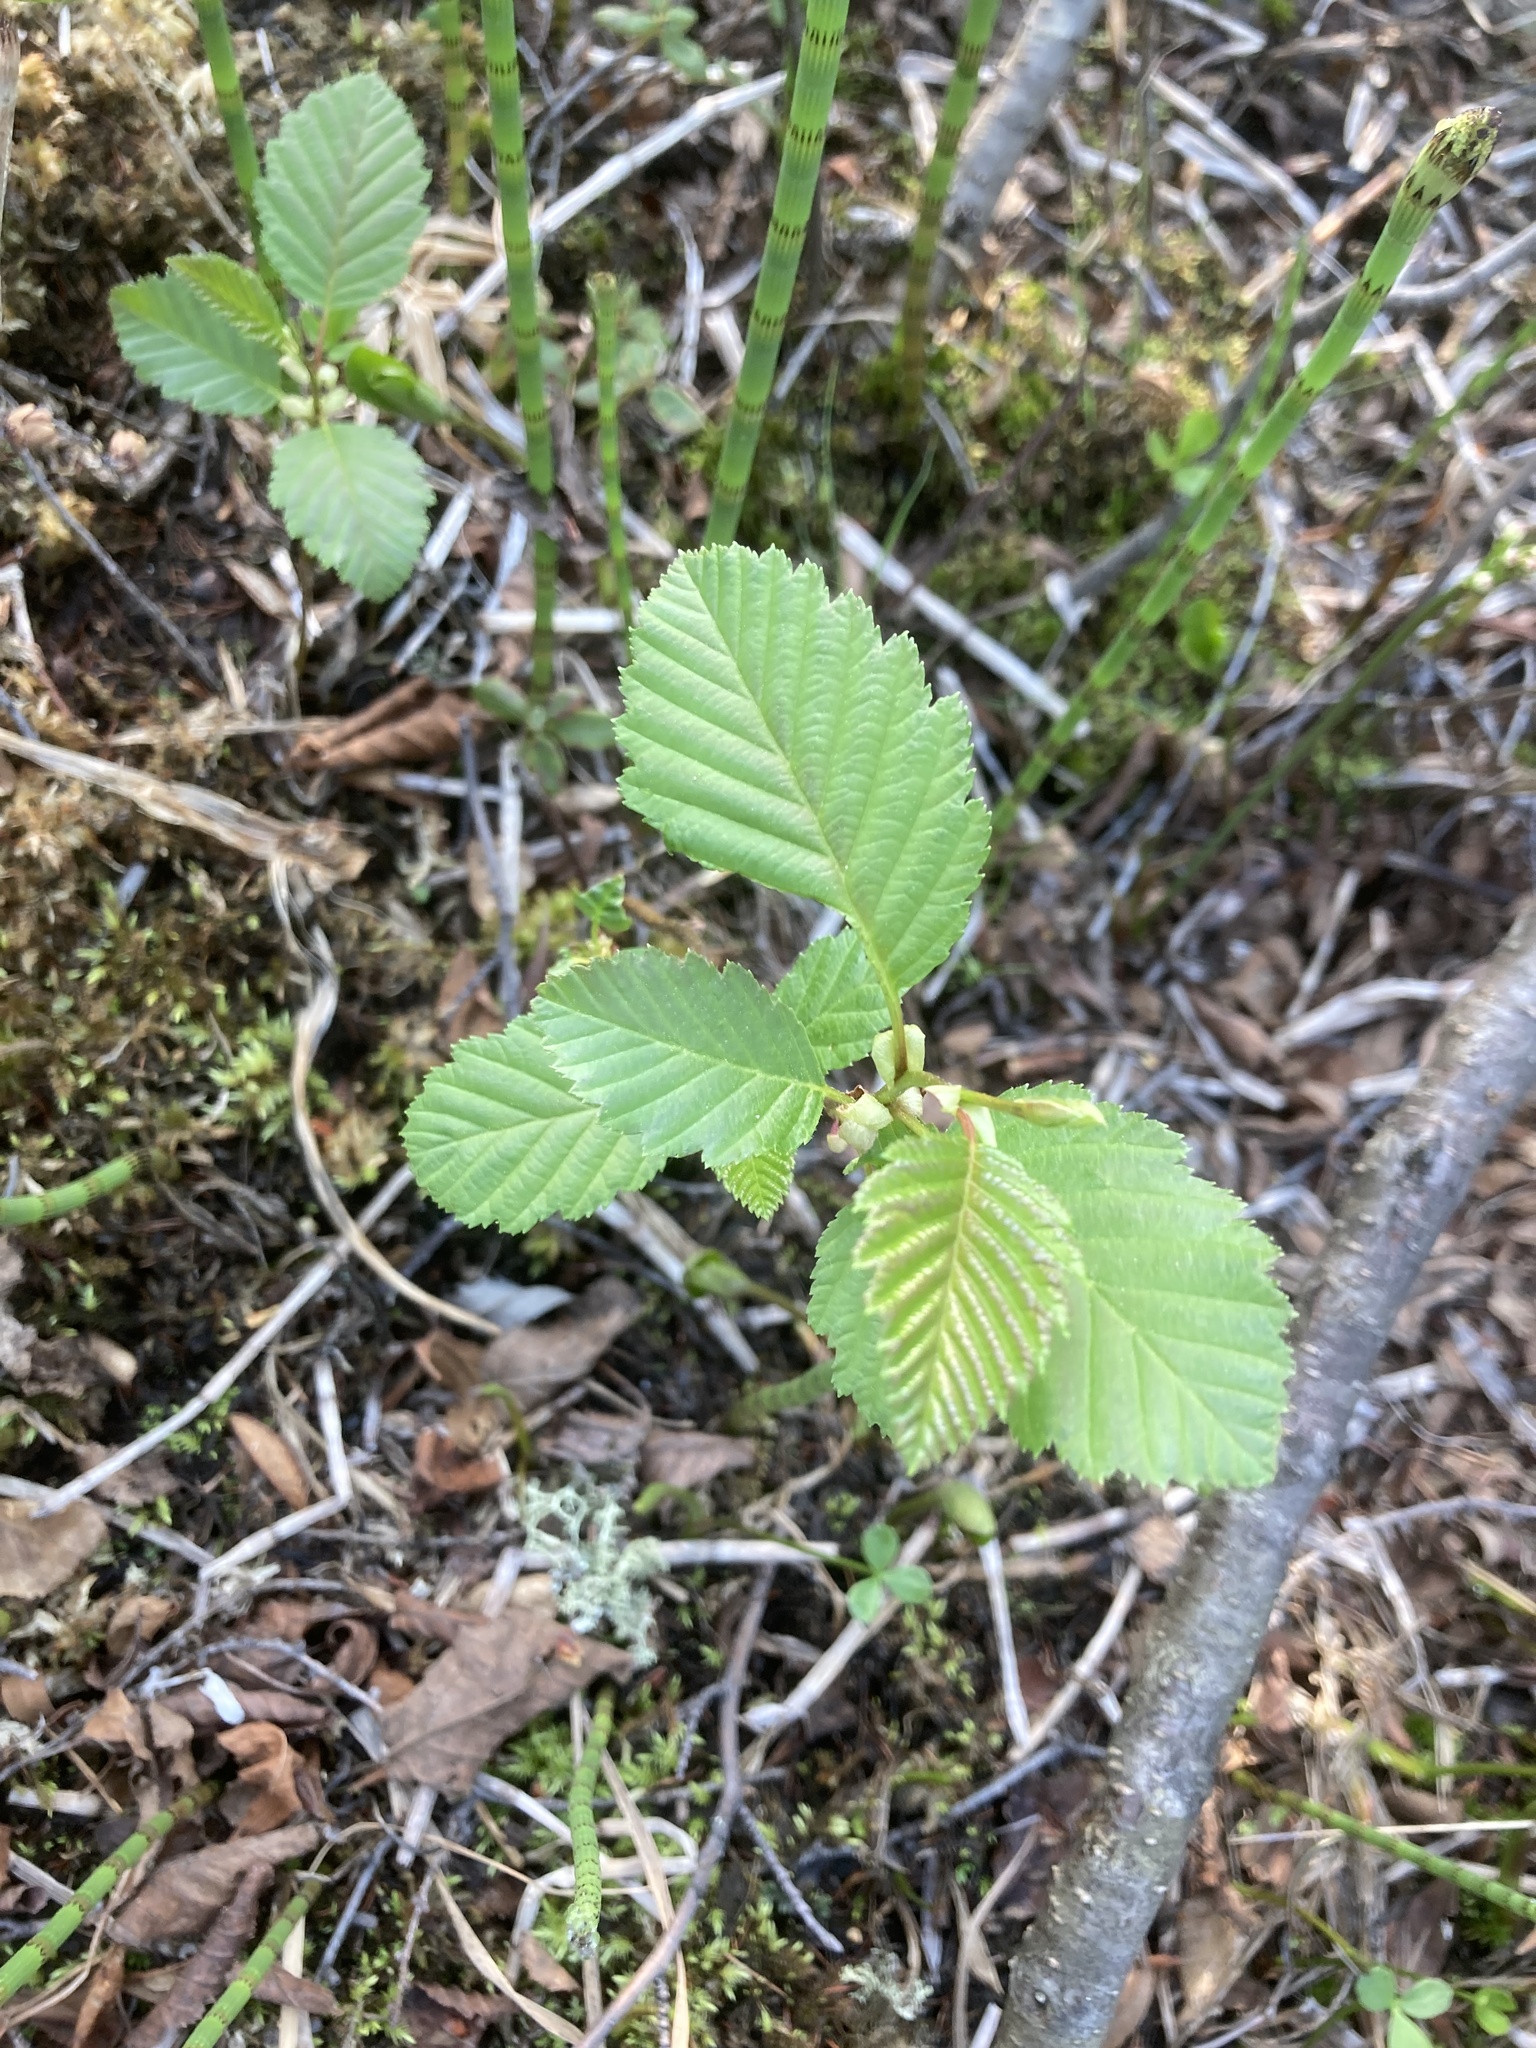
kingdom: Plantae
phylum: Tracheophyta
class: Magnoliopsida
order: Fagales
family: Betulaceae
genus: Alnus
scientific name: Alnus incana
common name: Grey alder
